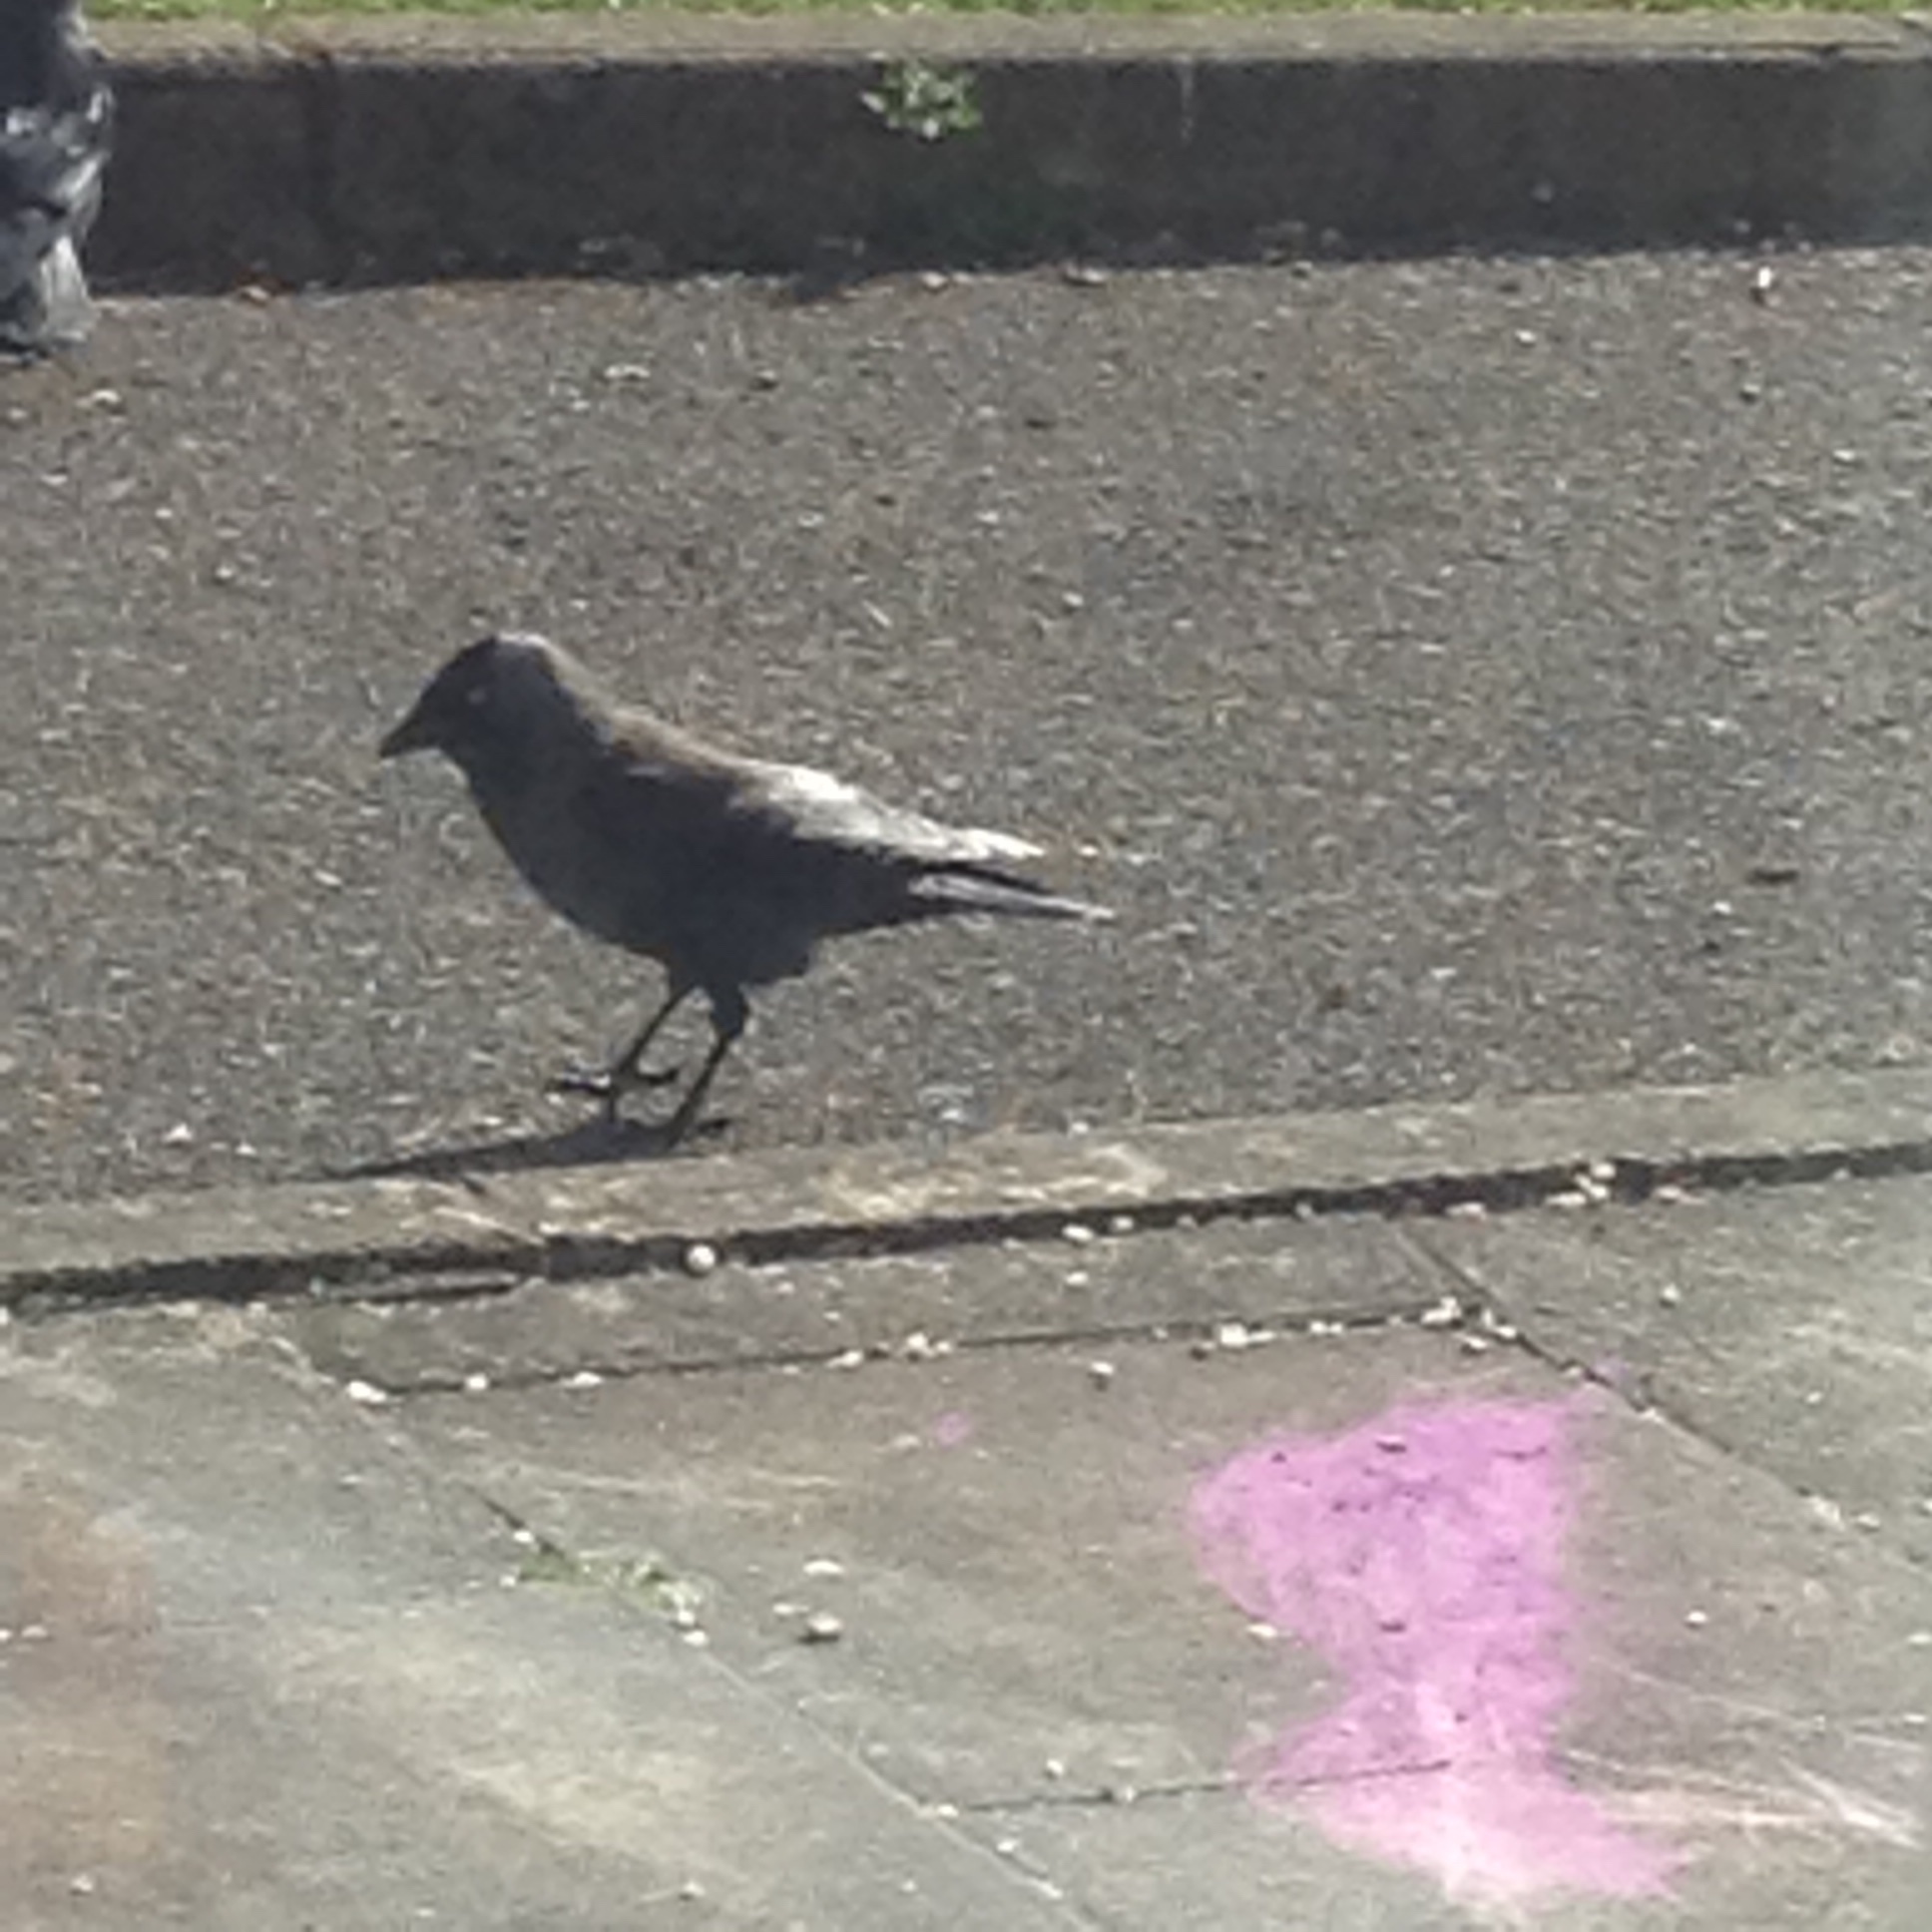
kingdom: Animalia
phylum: Chordata
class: Aves
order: Passeriformes
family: Corvidae
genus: Coloeus
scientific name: Coloeus monedula
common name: Western jackdaw
